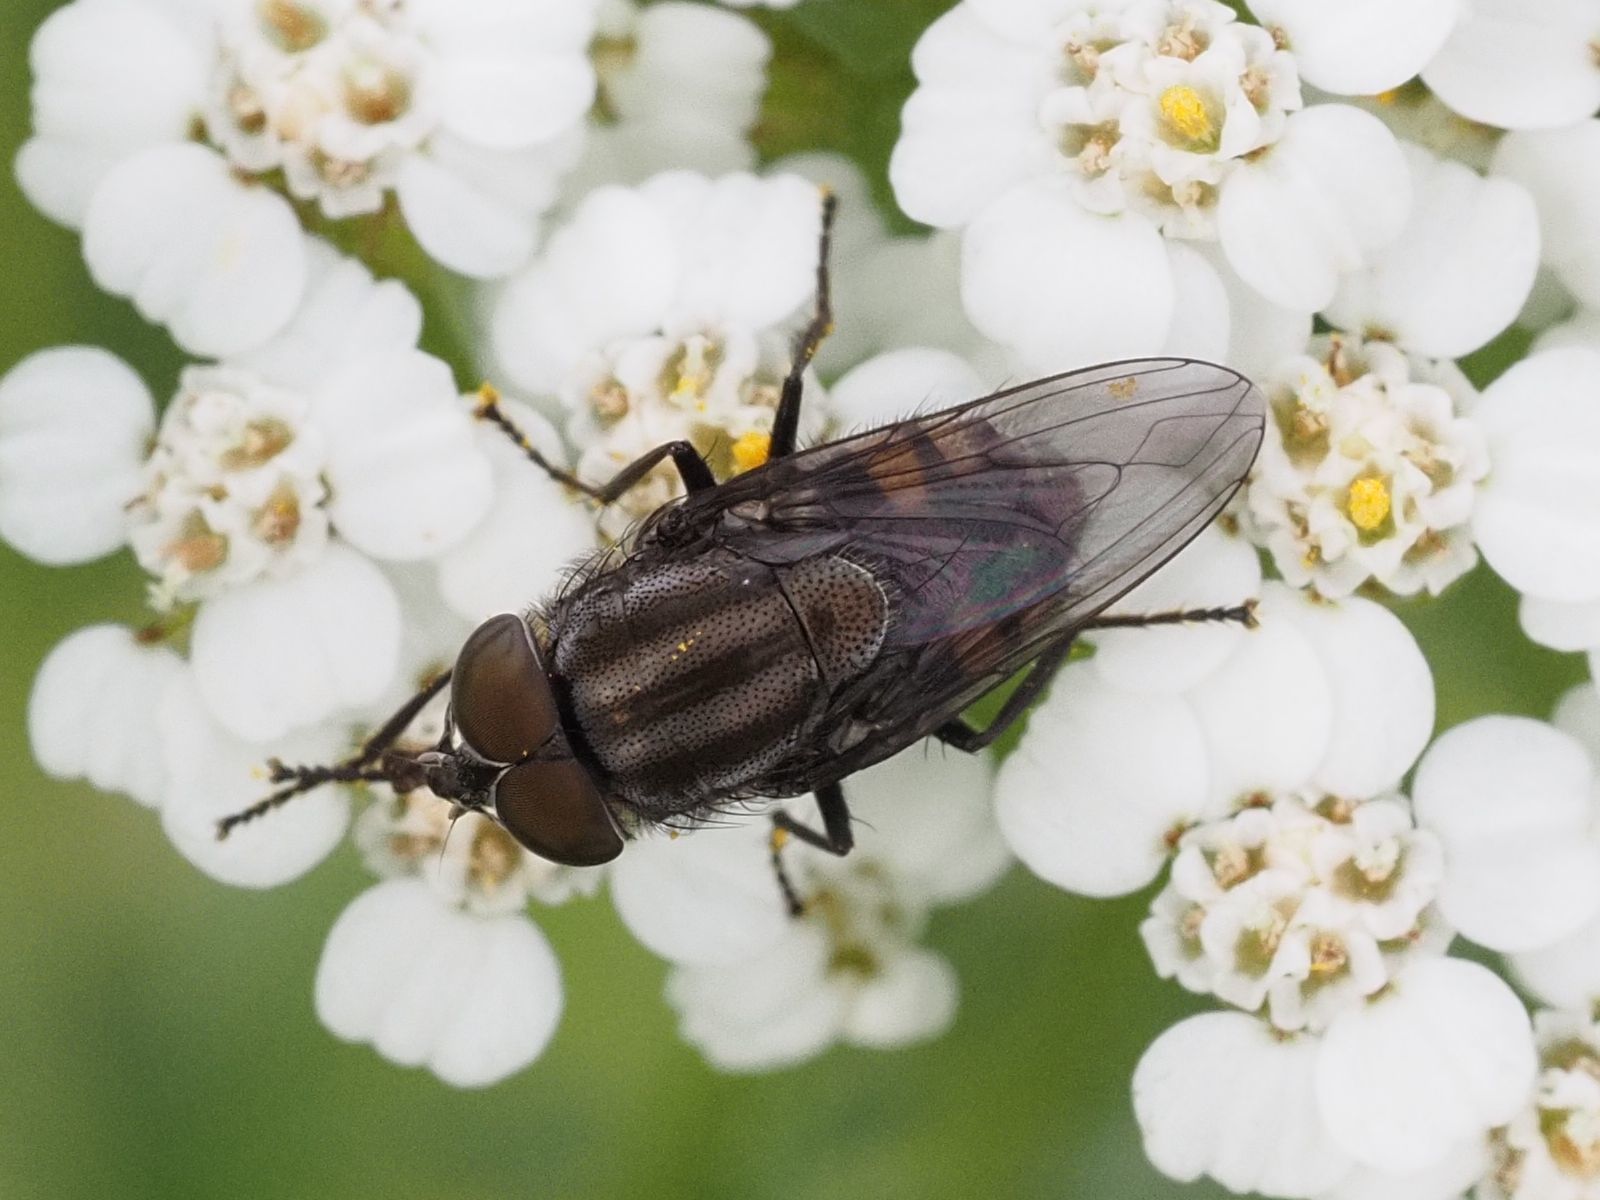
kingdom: Animalia
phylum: Arthropoda
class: Insecta
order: Diptera
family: Calliphoridae
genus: Stomorhina
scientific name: Stomorhina lunata
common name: Locust blowfly
